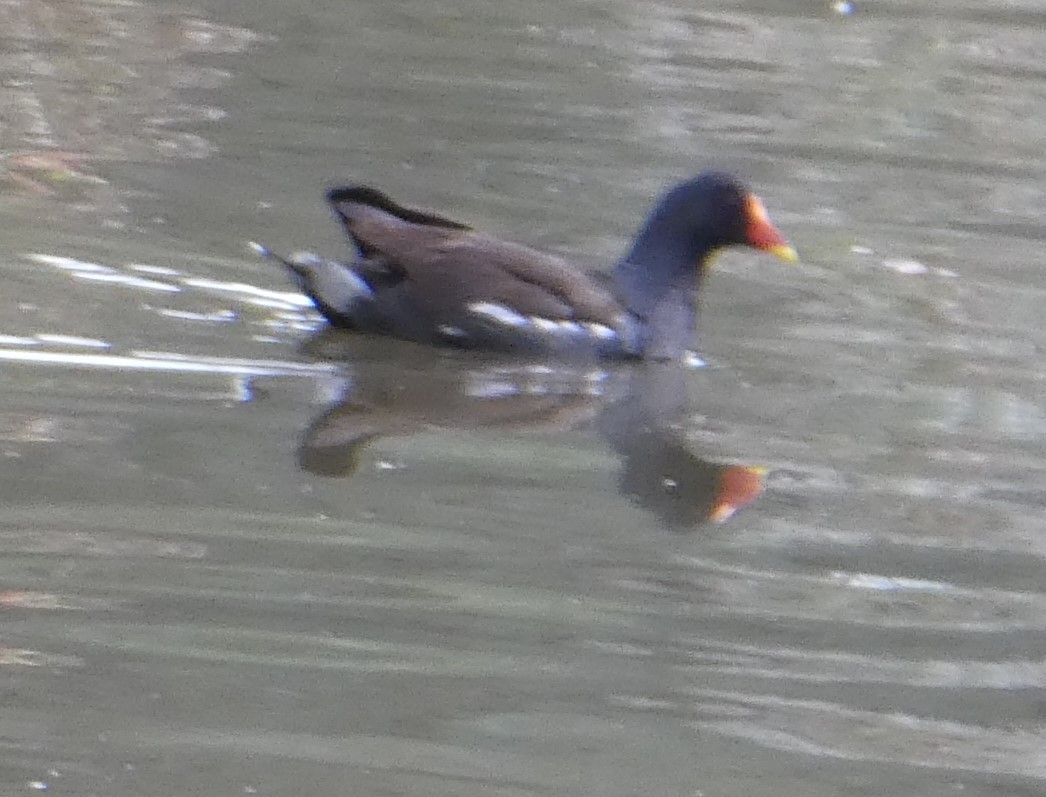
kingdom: Animalia
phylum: Chordata
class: Aves
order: Gruiformes
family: Rallidae
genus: Gallinula
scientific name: Gallinula chloropus
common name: Common moorhen
